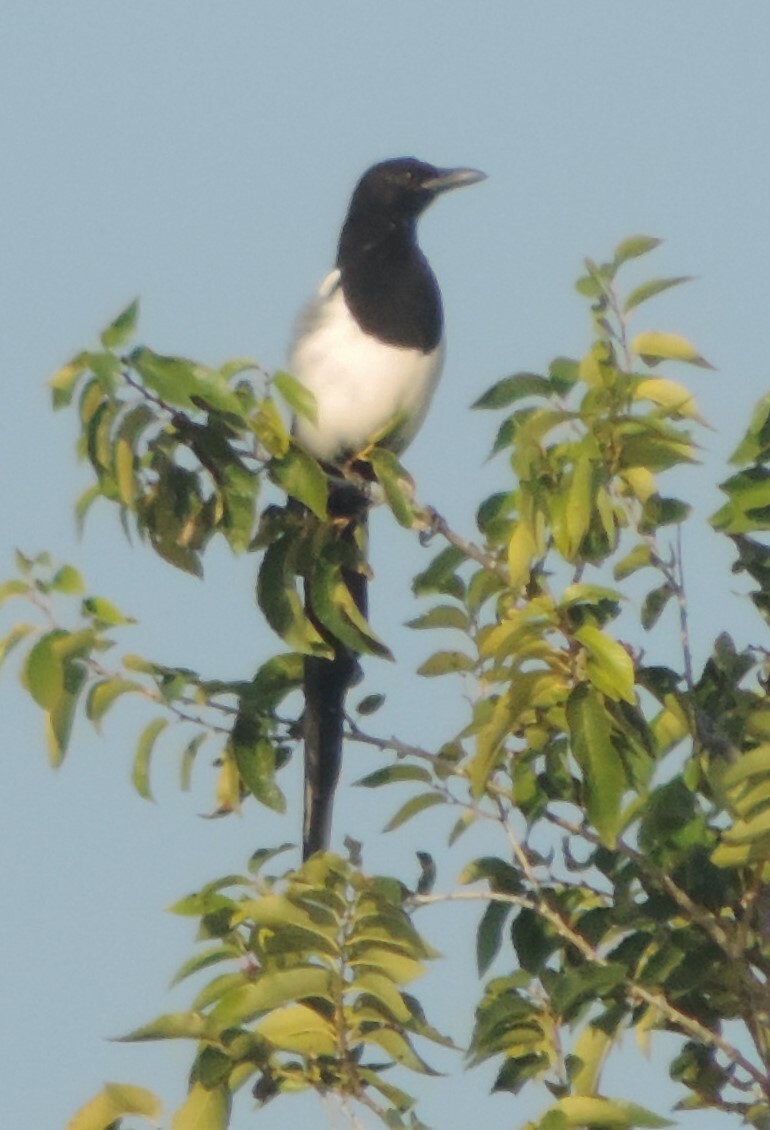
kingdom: Animalia
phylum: Chordata
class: Aves
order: Passeriformes
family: Corvidae
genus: Pica
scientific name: Pica hudsonia
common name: Black-billed magpie
